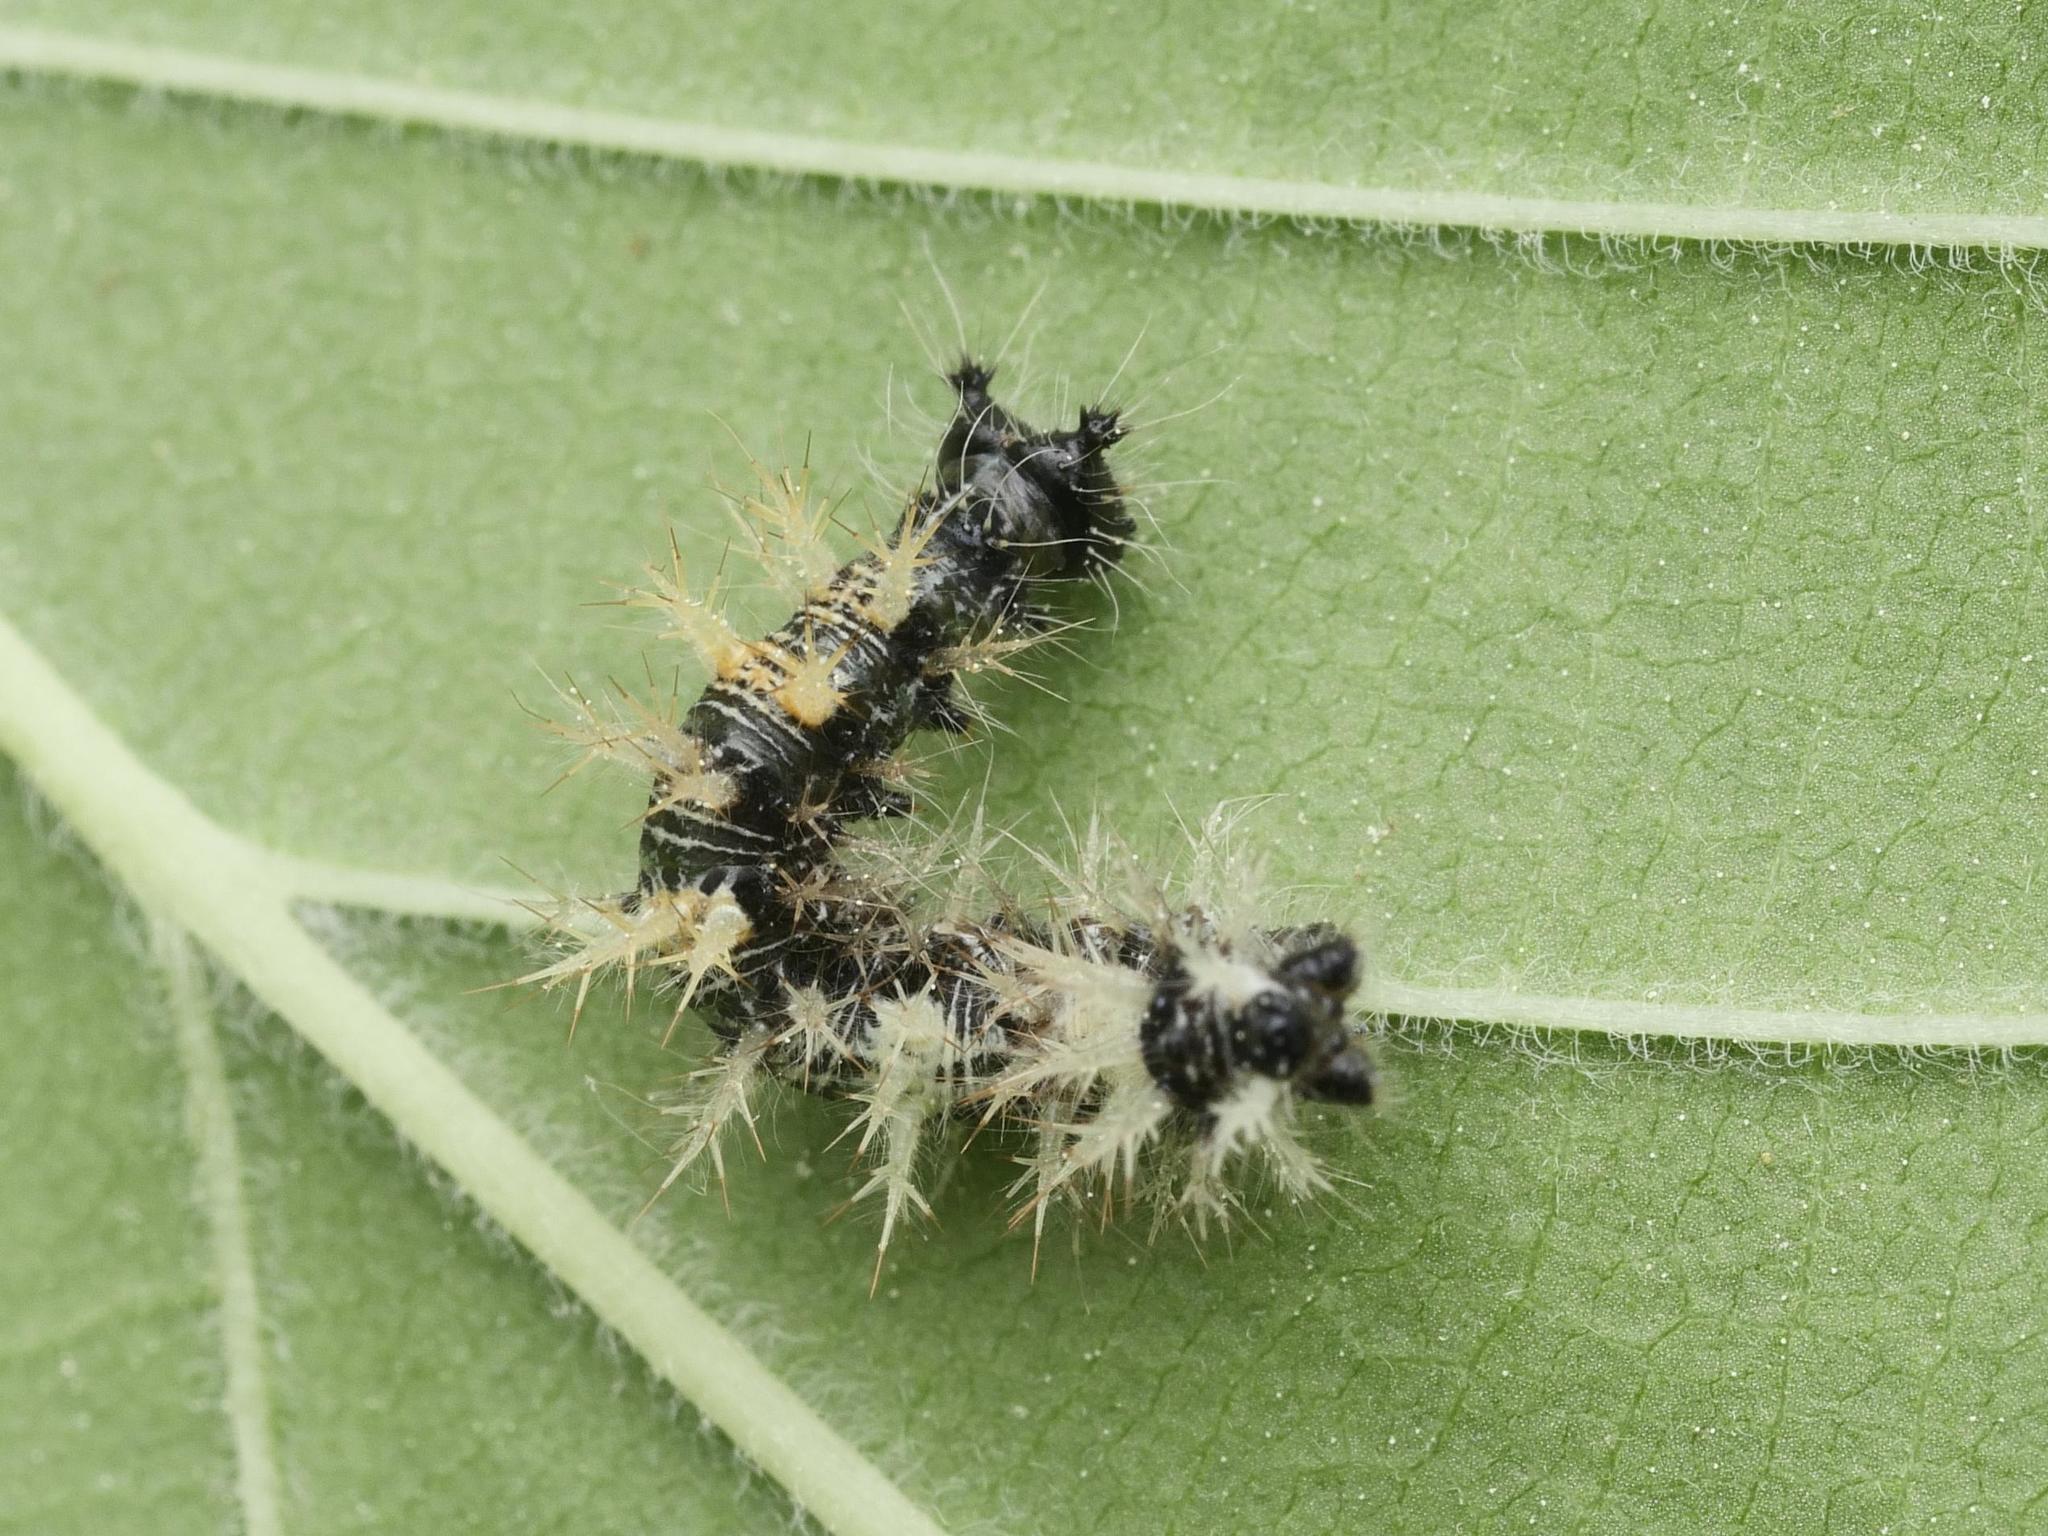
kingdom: Animalia
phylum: Arthropoda
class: Insecta
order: Lepidoptera
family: Nymphalidae
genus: Polygonia
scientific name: Polygonia c-album
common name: Comma
